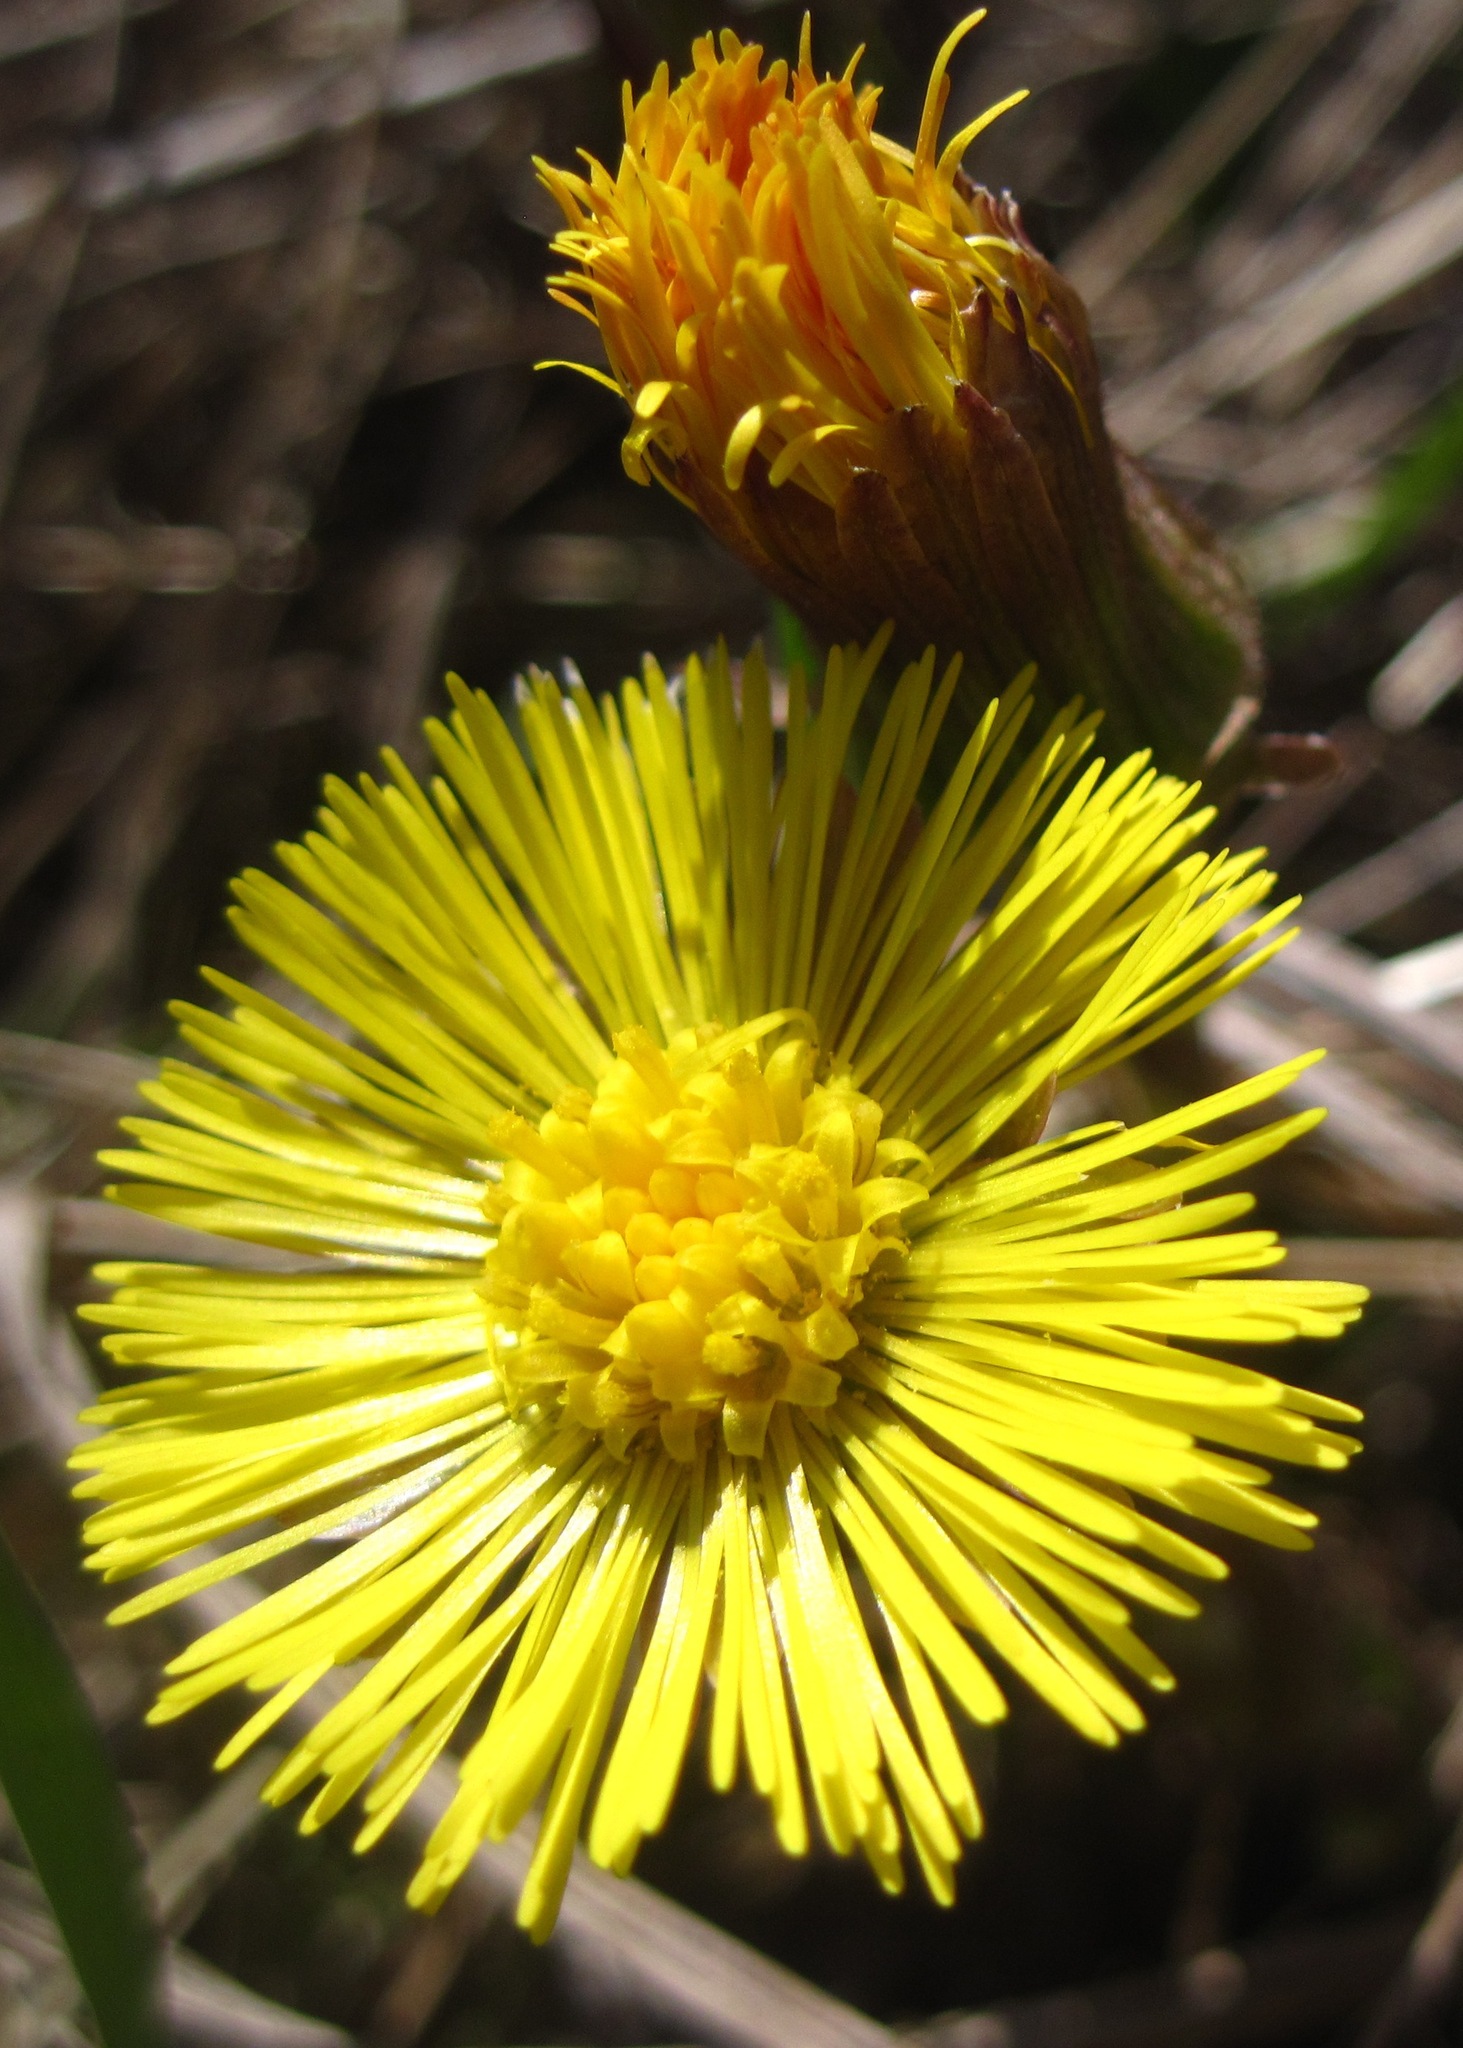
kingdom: Plantae
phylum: Tracheophyta
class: Magnoliopsida
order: Asterales
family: Asteraceae
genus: Tussilago
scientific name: Tussilago farfara
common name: Coltsfoot
